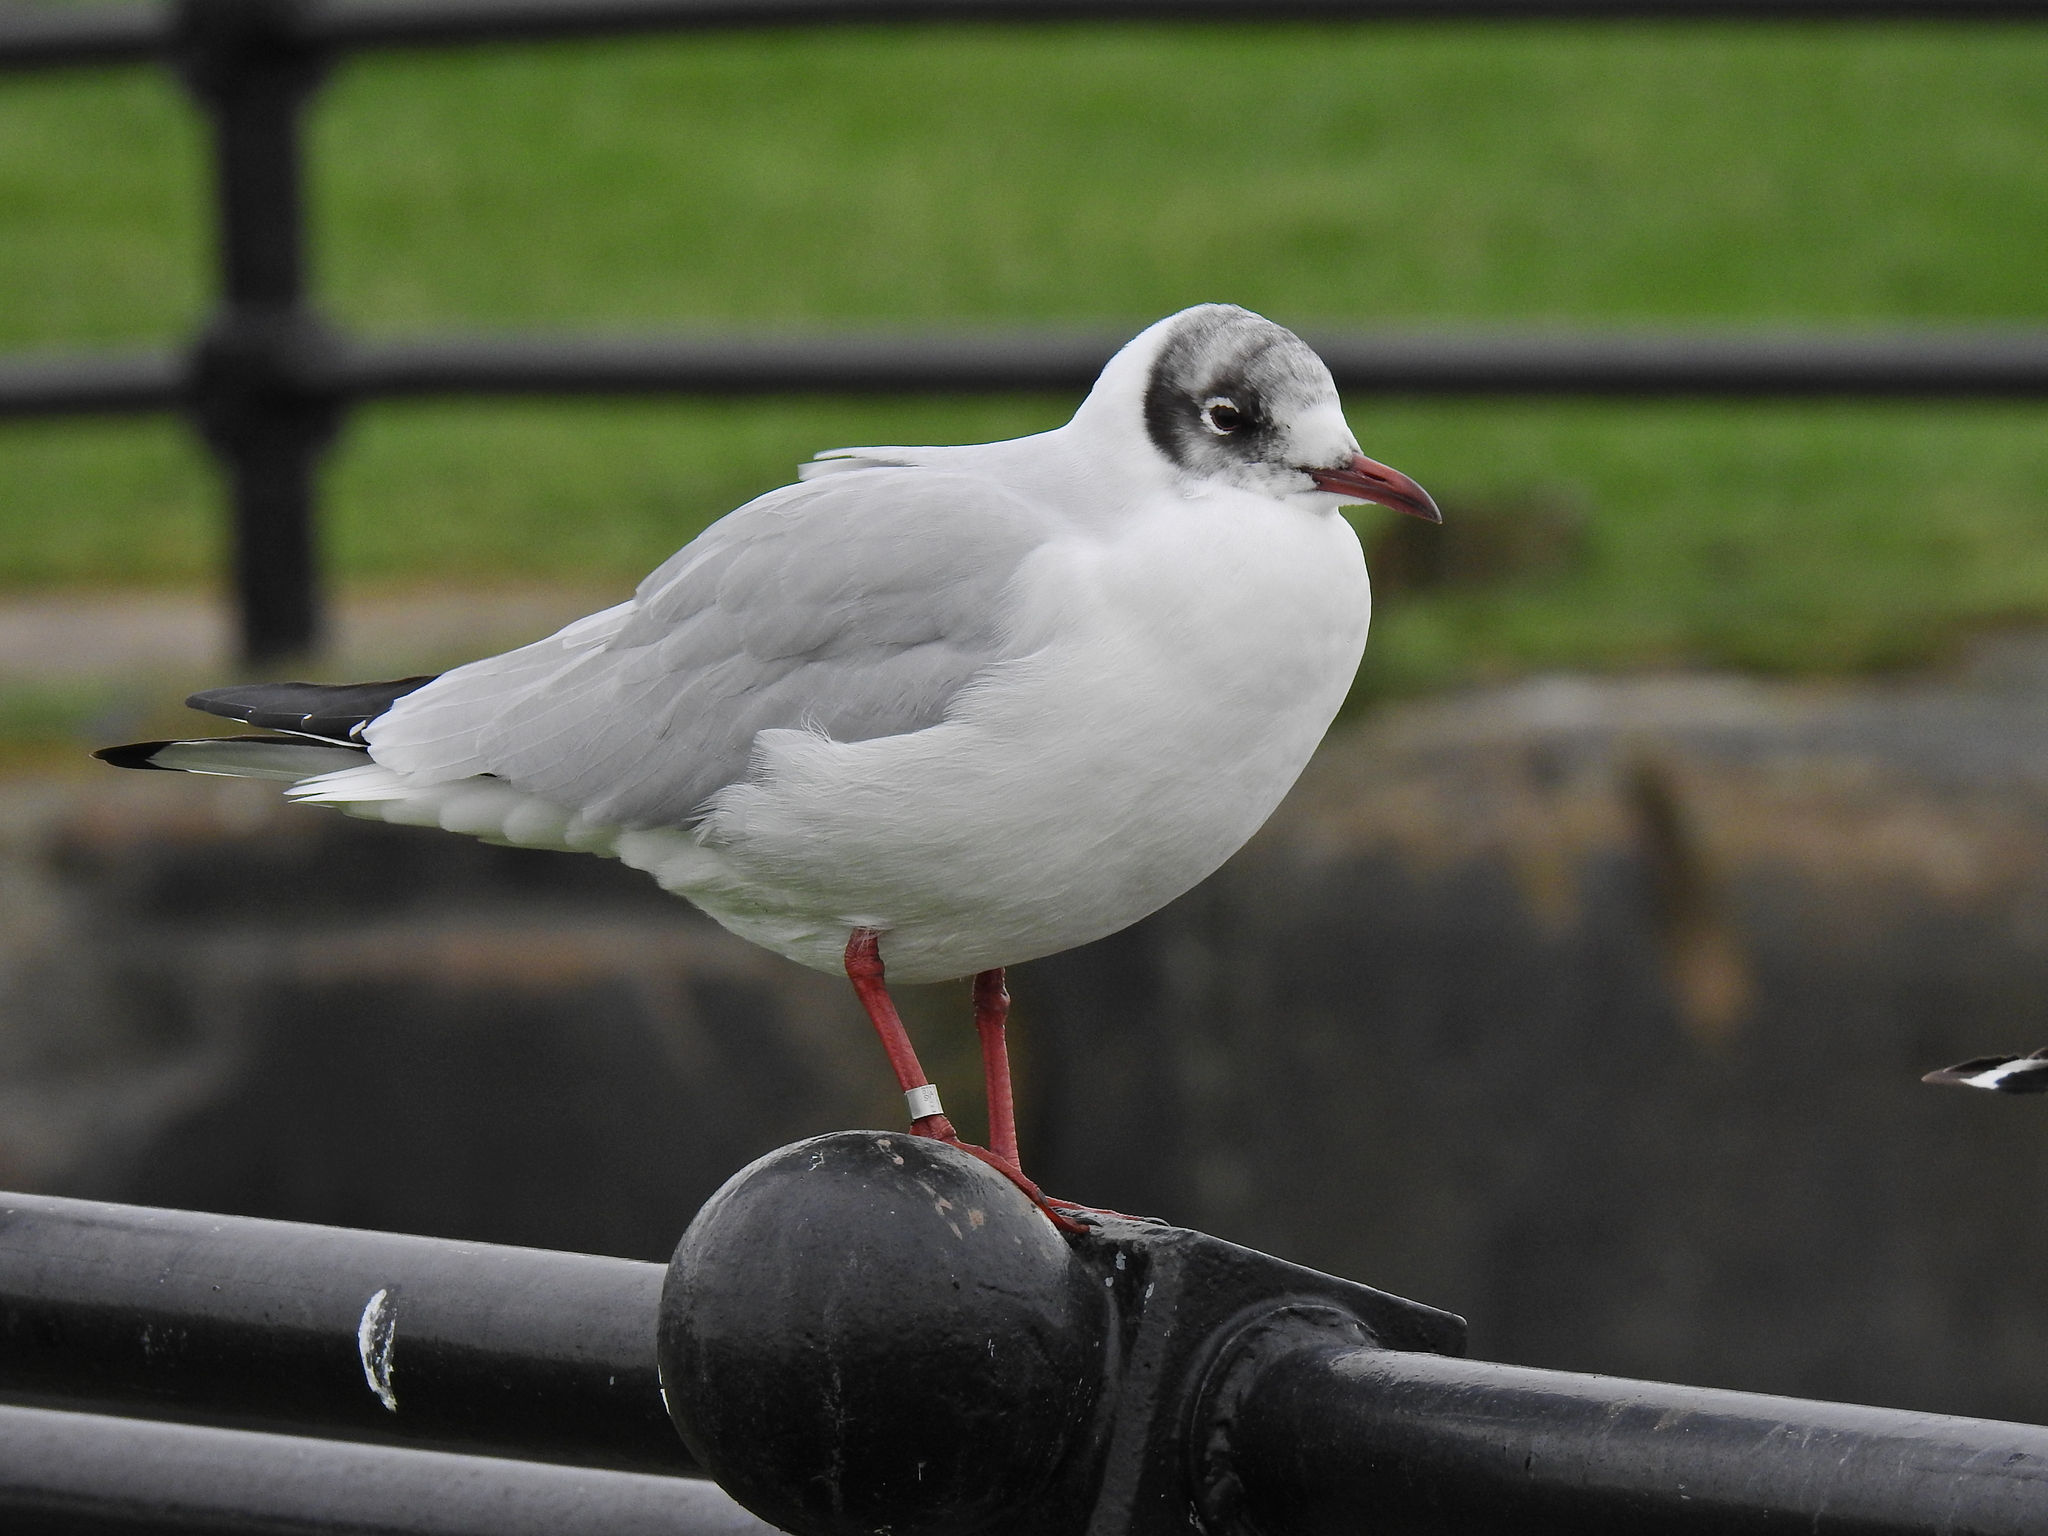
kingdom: Animalia
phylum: Chordata
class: Aves
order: Charadriiformes
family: Laridae
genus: Chroicocephalus
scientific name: Chroicocephalus ridibundus
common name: Black-headed gull
